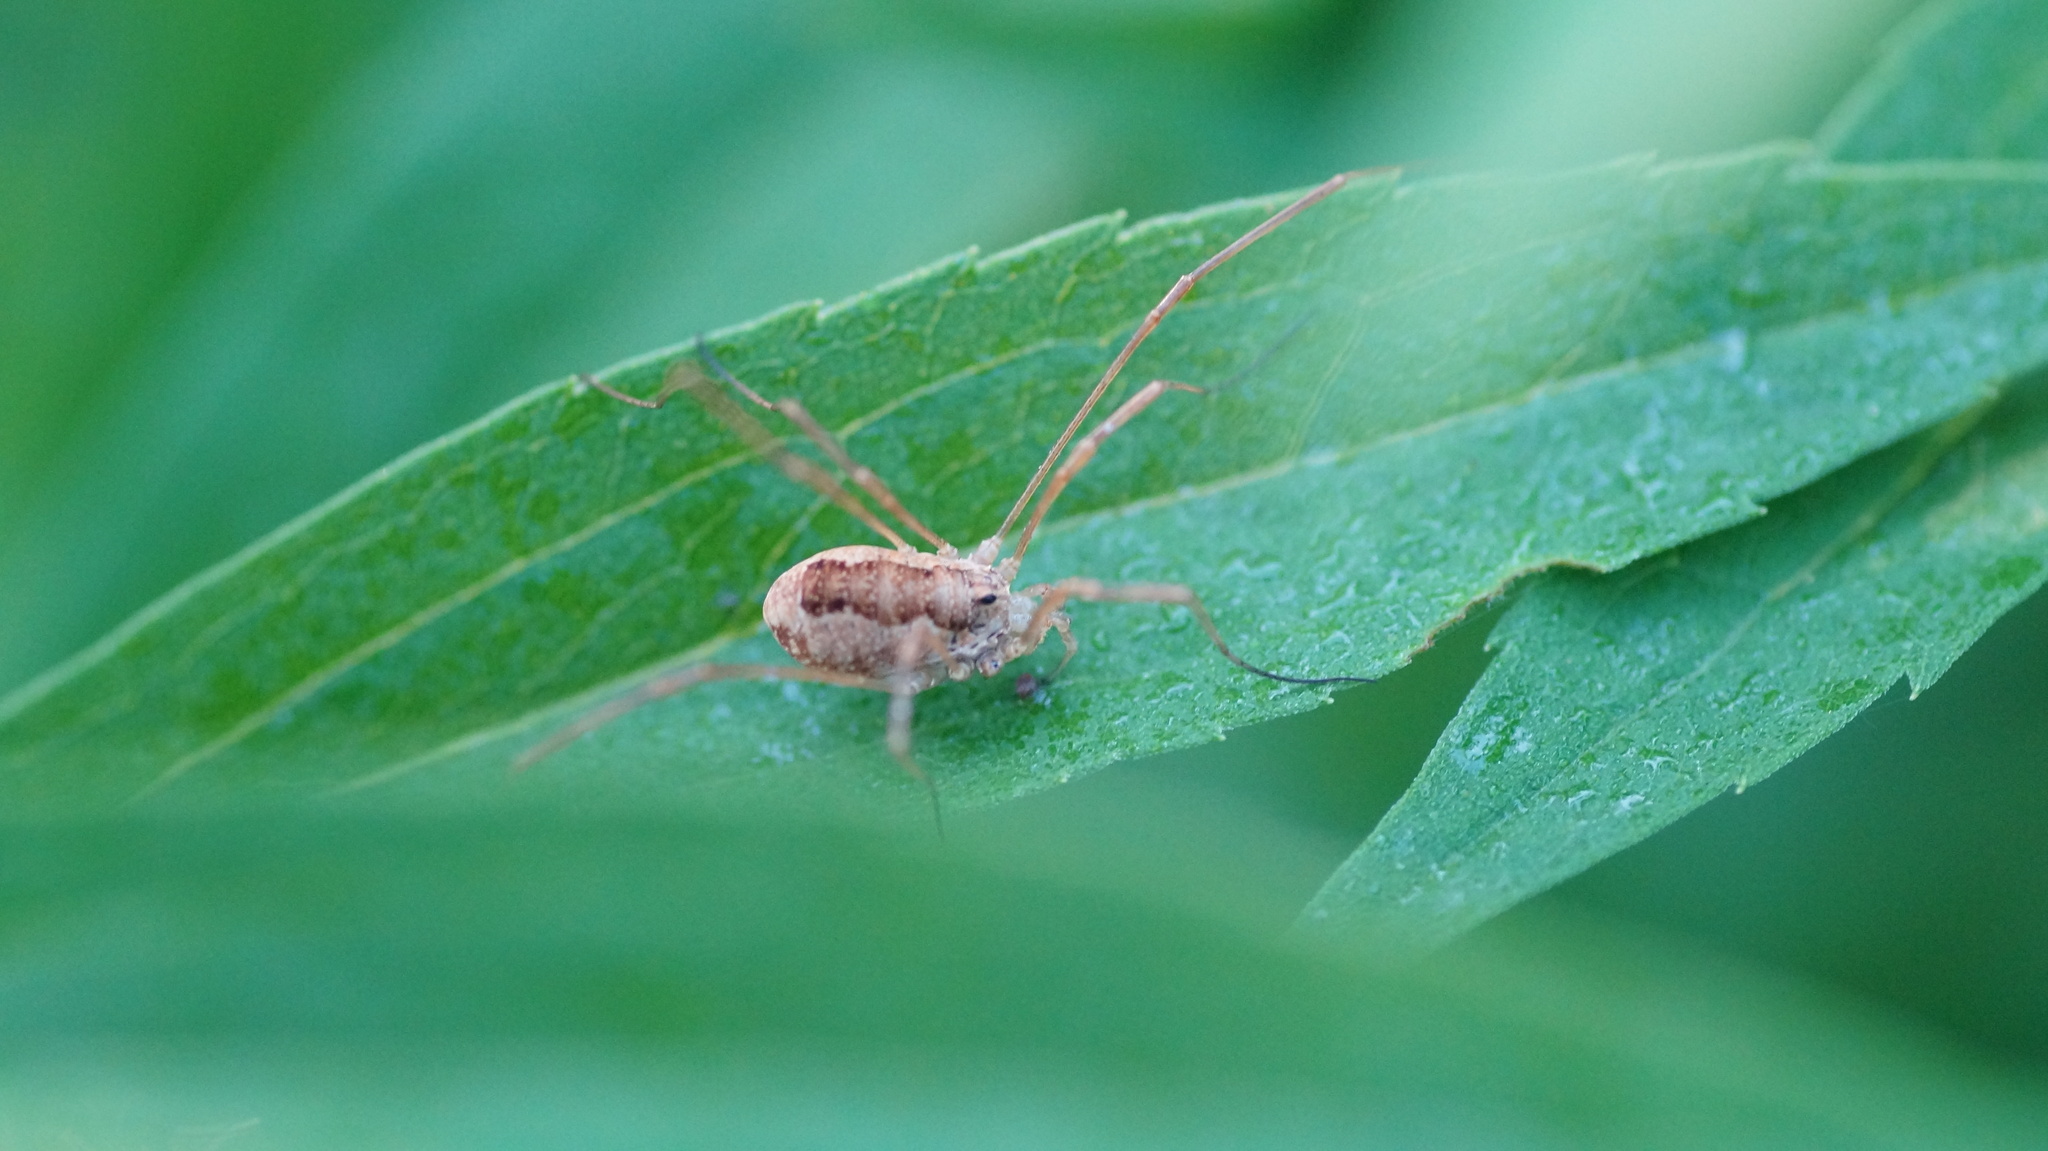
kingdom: Animalia
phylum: Arthropoda
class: Arachnida
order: Opiliones
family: Phalangiidae
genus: Rilaena
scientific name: Rilaena triangularis
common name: Spring harvestman
